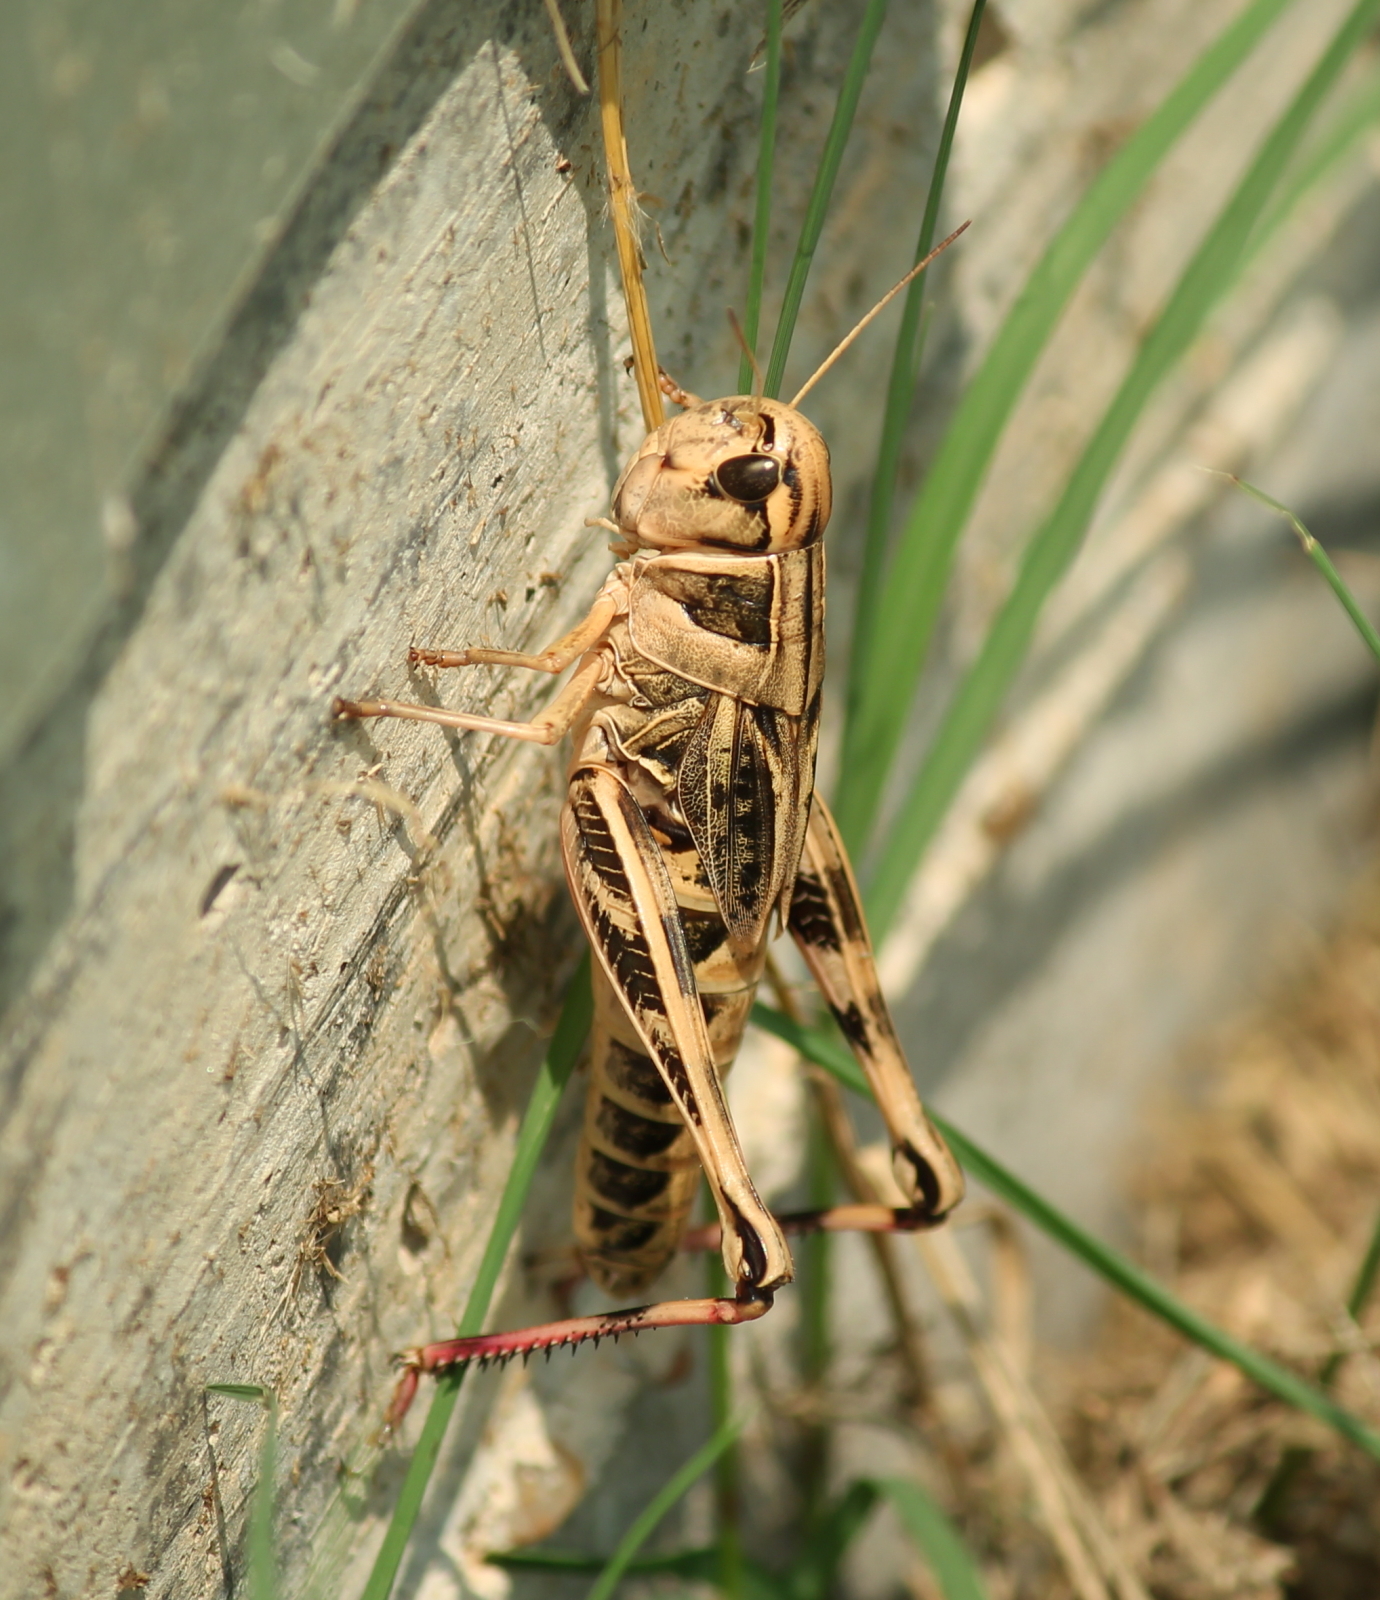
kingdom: Animalia
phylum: Arthropoda
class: Insecta
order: Orthoptera
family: Acrididae
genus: Boopedon
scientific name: Boopedon gracile
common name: Graceful range grasshopper
